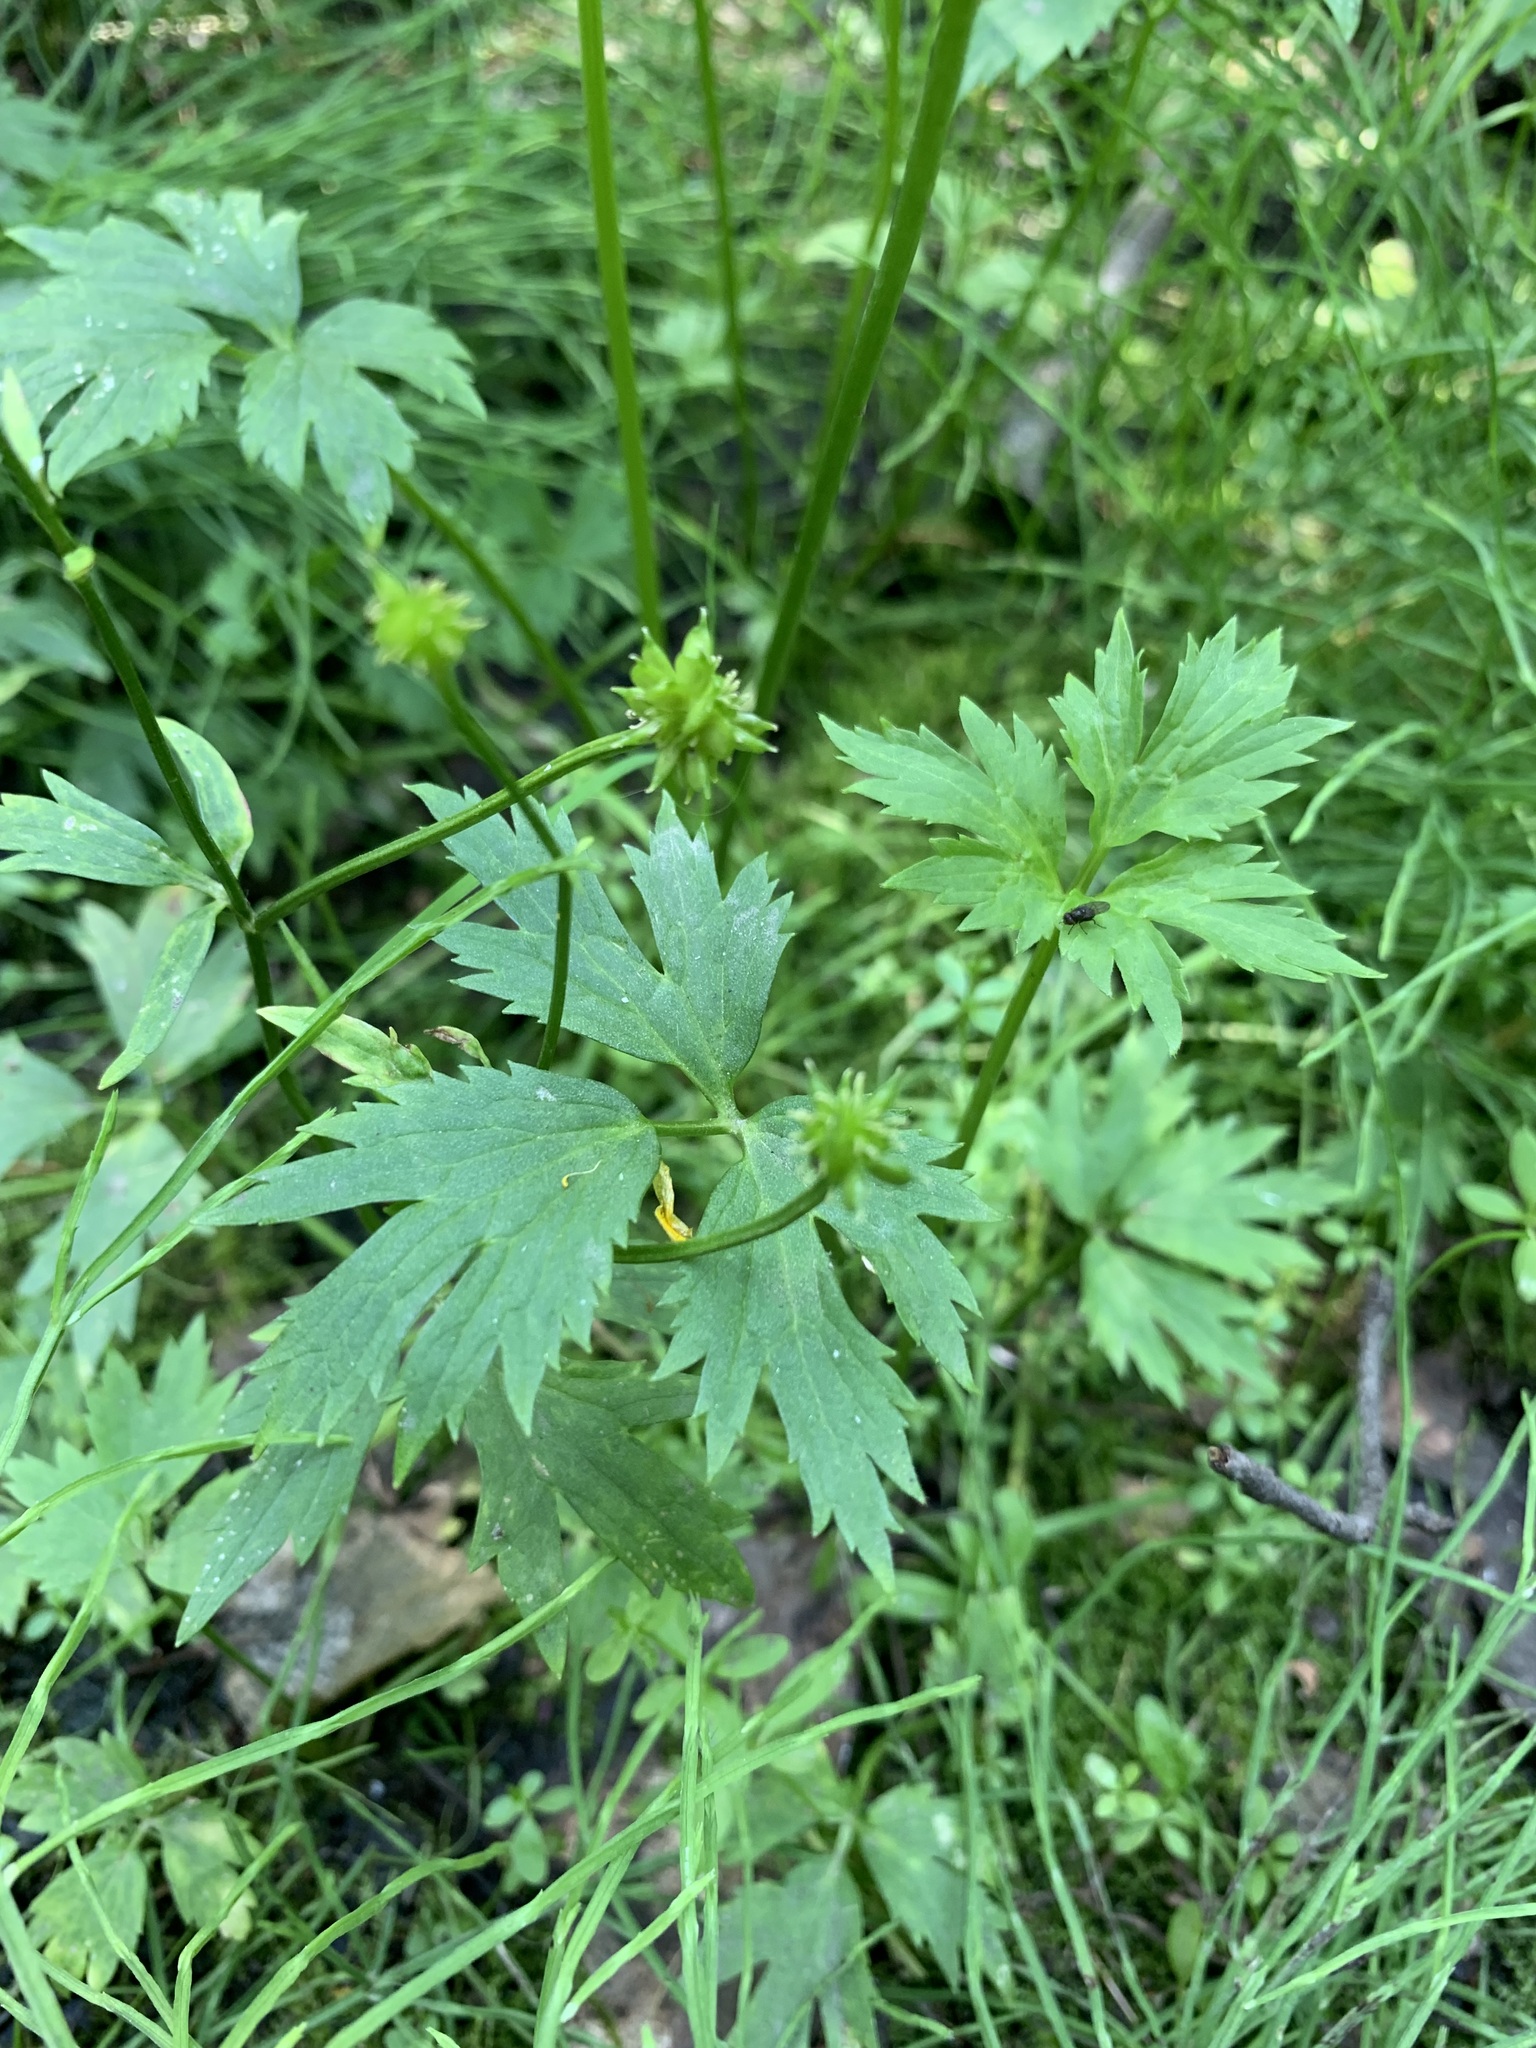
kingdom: Plantae
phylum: Tracheophyta
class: Magnoliopsida
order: Ranunculales
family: Ranunculaceae
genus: Ranunculus
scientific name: Ranunculus repens
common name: Creeping buttercup
